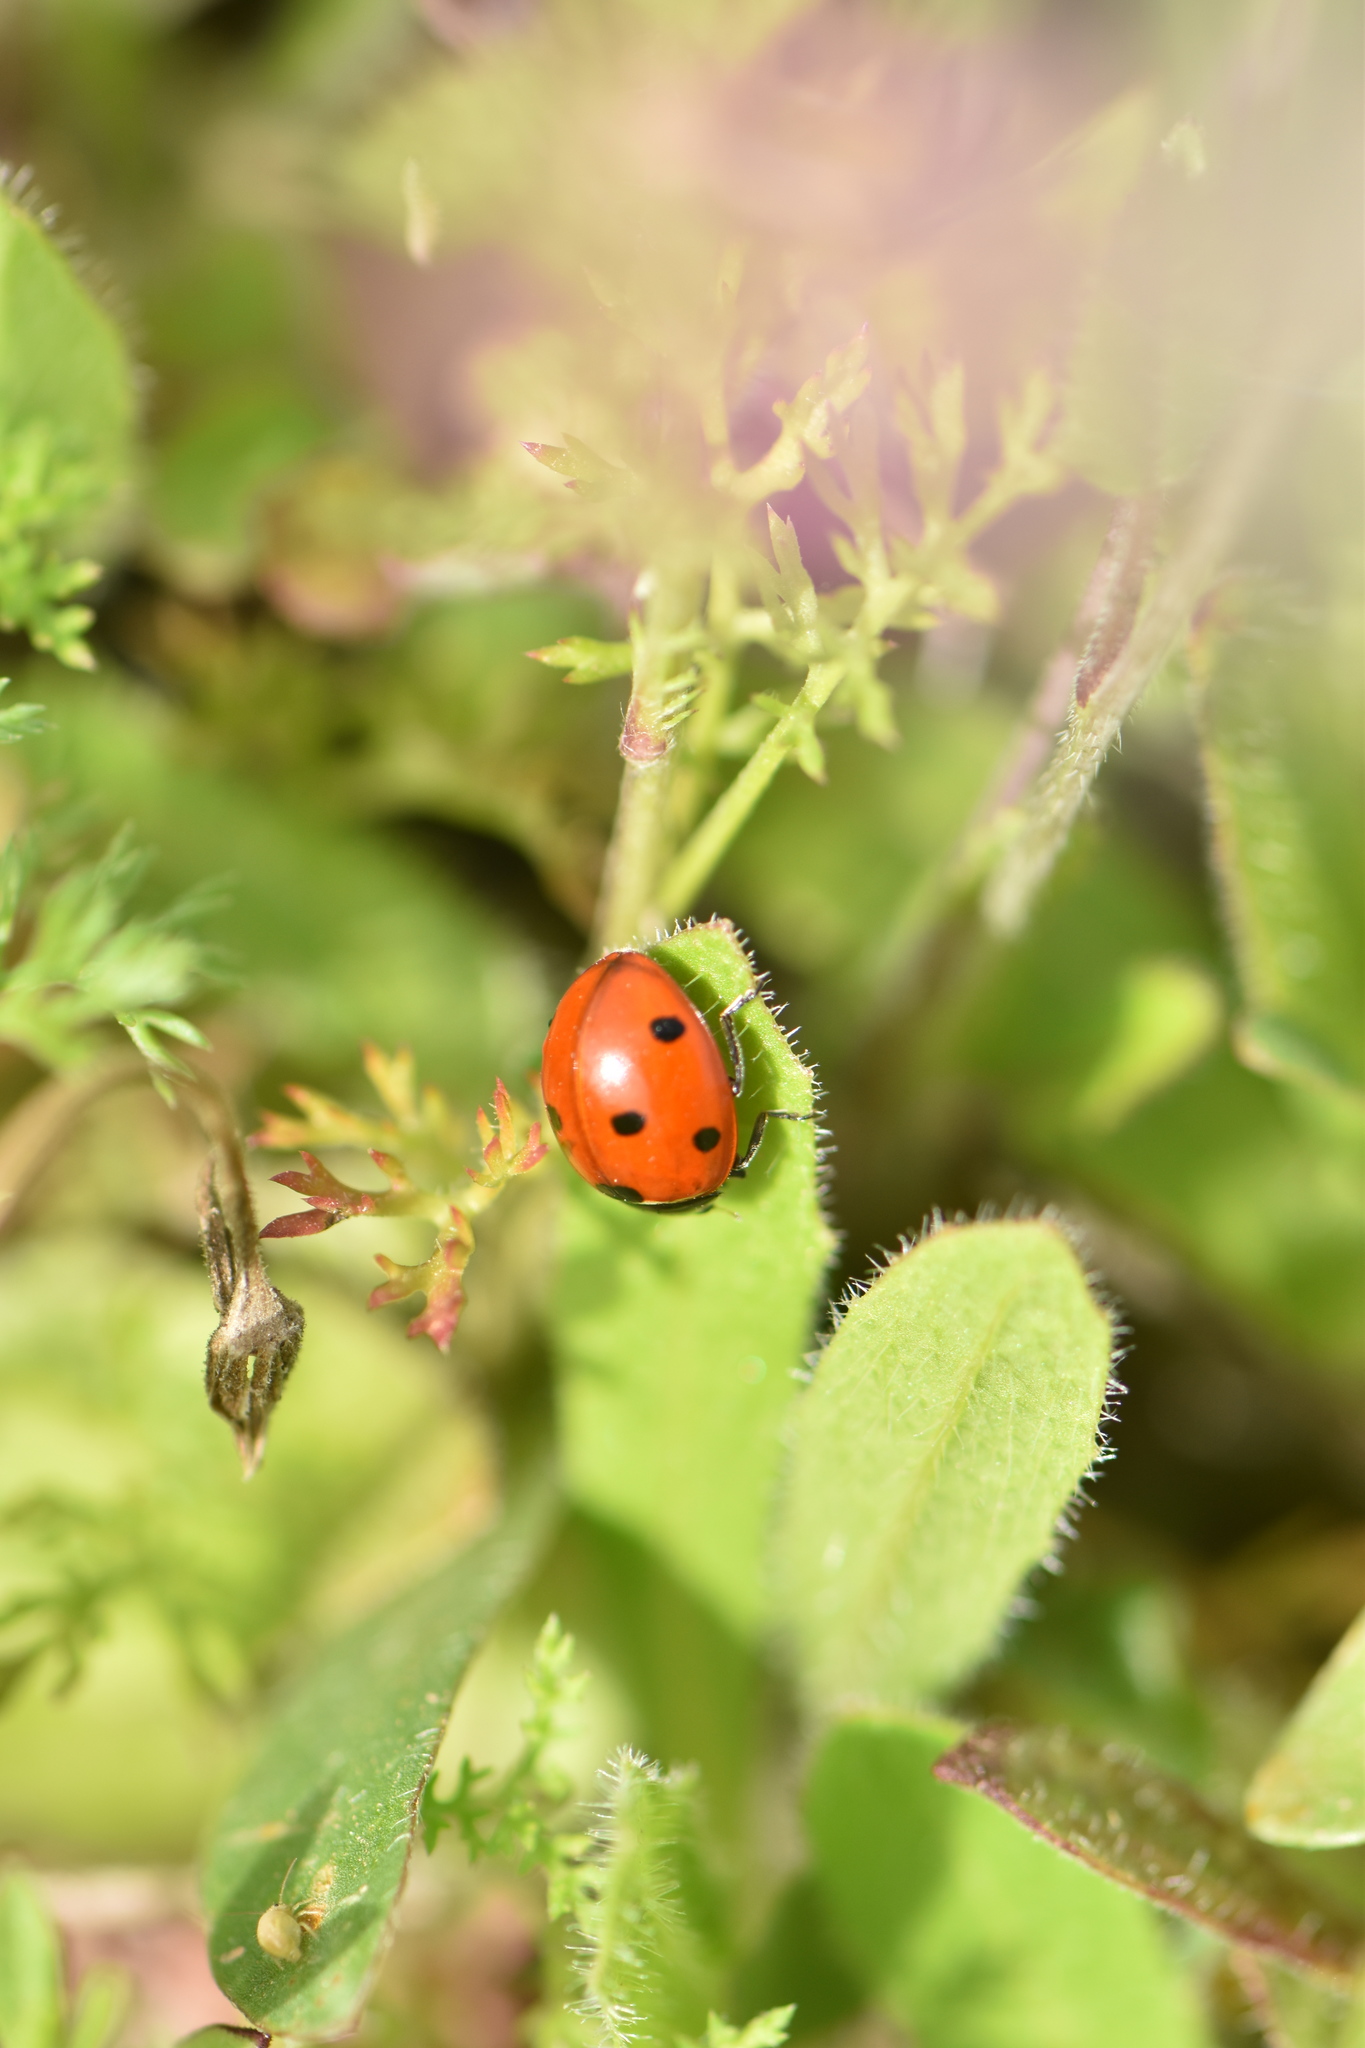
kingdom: Animalia
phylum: Arthropoda
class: Insecta
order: Coleoptera
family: Coccinellidae
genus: Coccinella
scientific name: Coccinella septempunctata
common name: Sevenspotted lady beetle
